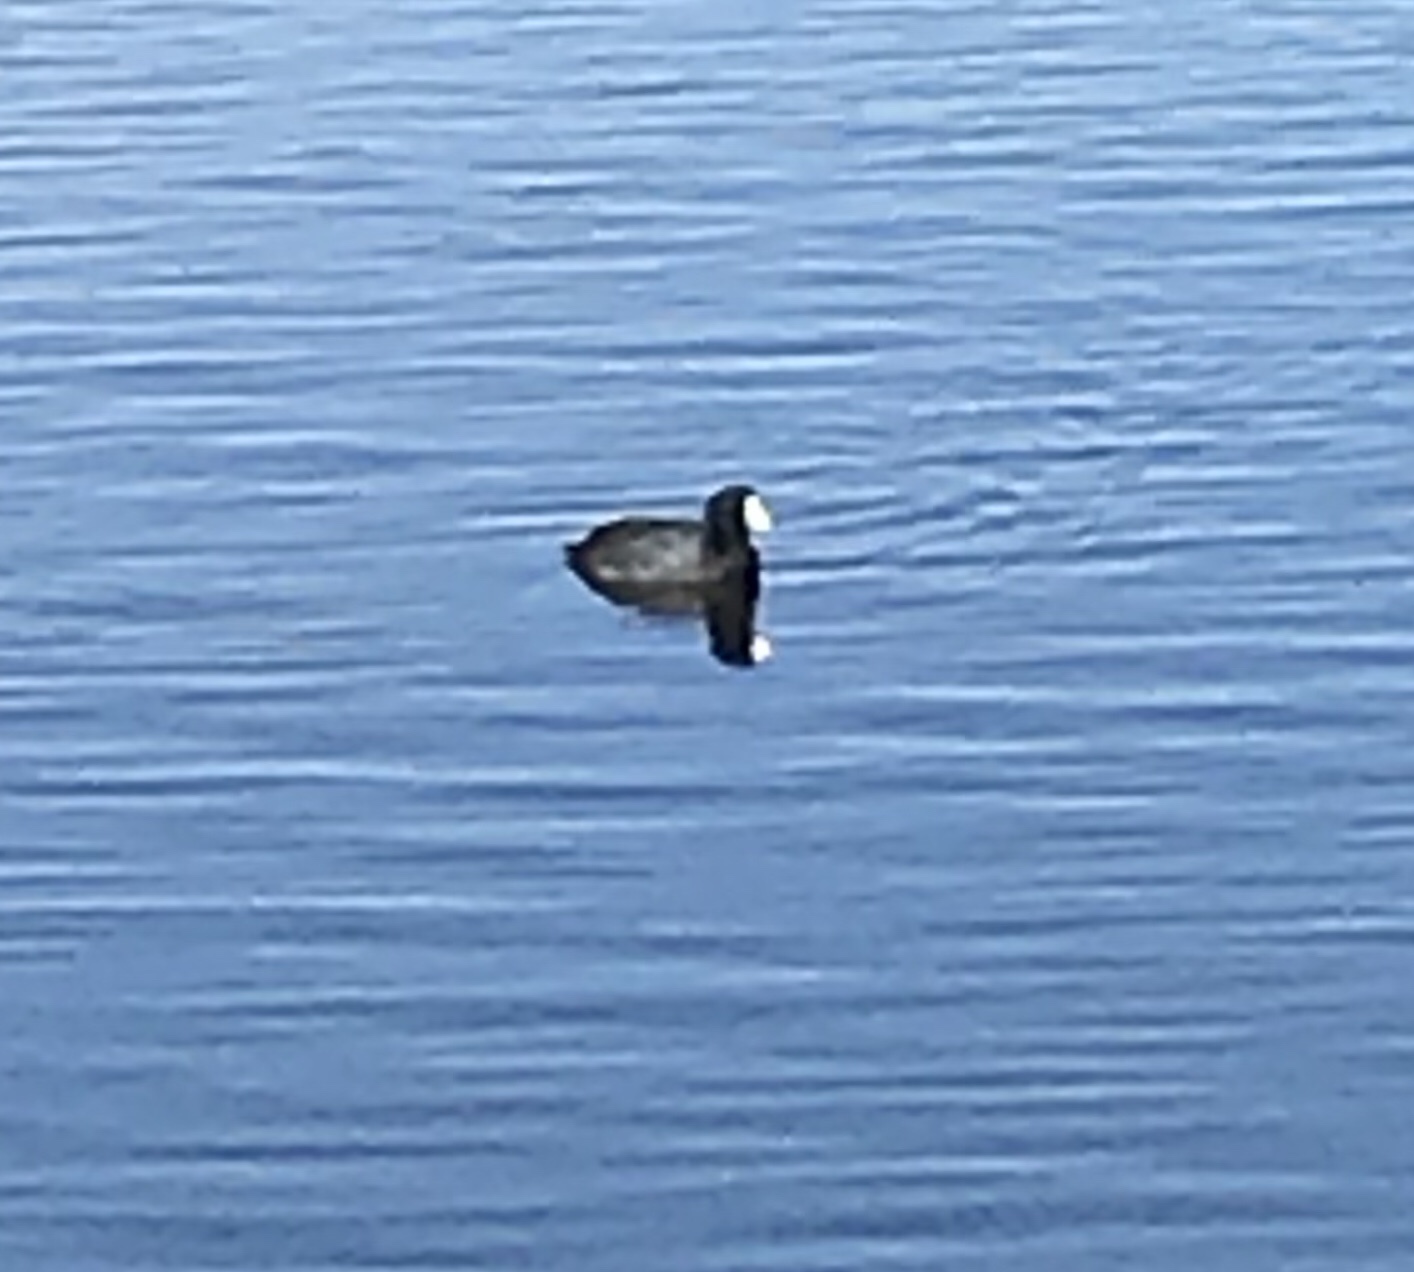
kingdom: Animalia
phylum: Chordata
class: Aves
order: Gruiformes
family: Rallidae
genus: Fulica
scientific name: Fulica americana
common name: American coot
